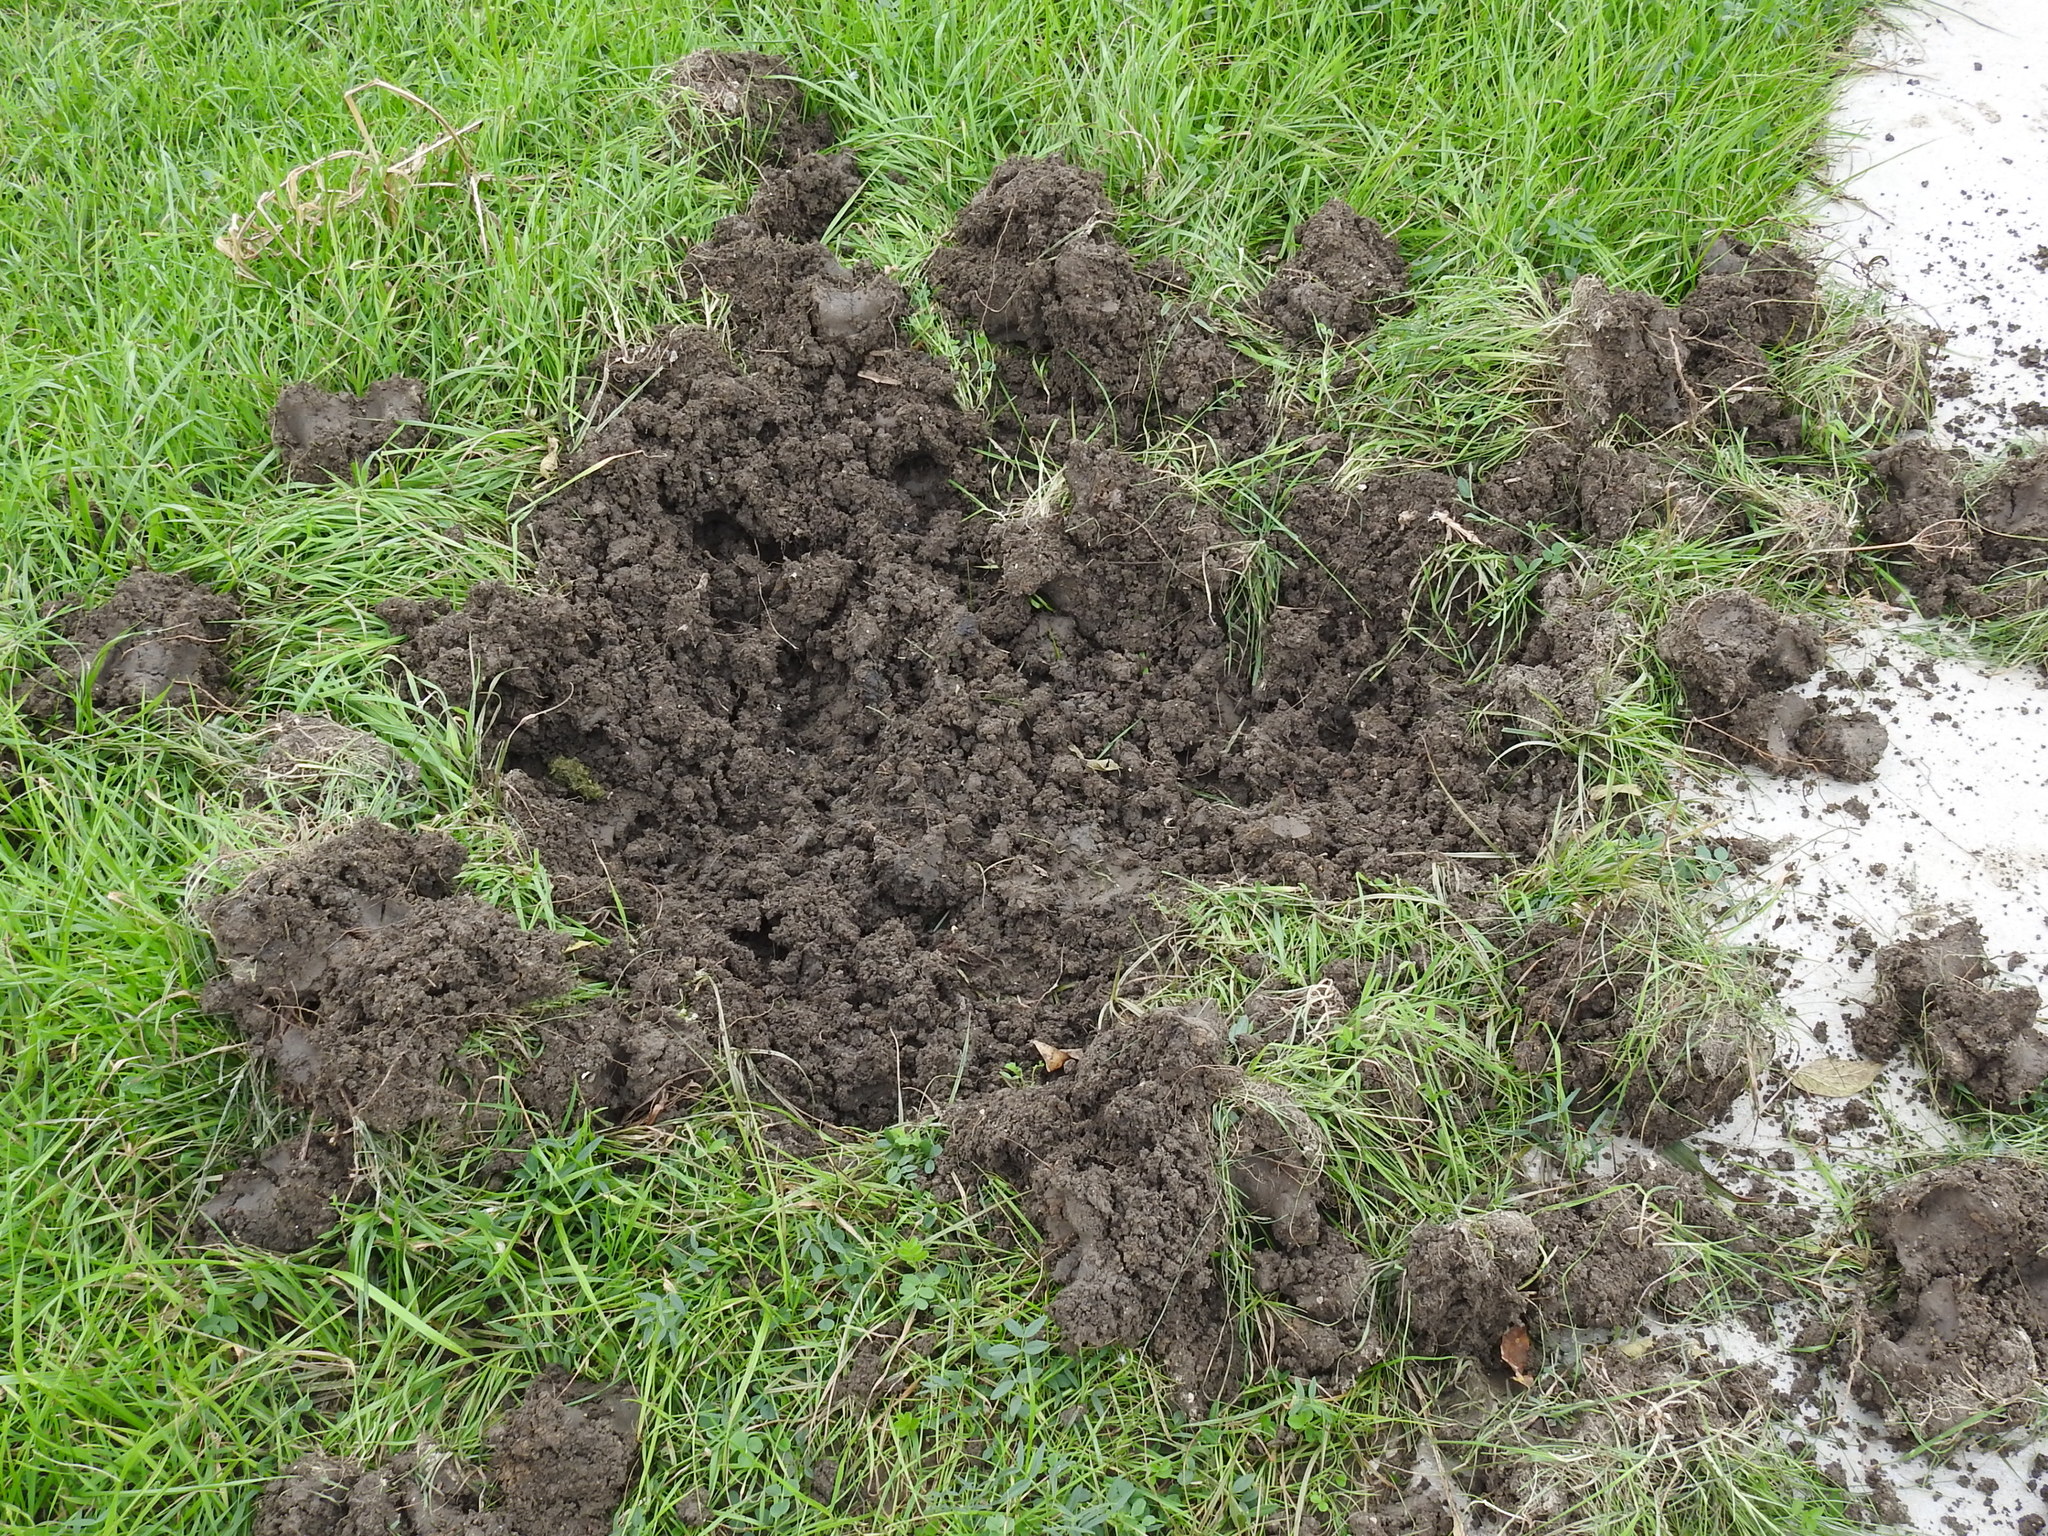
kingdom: Animalia
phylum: Chordata
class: Mammalia
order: Artiodactyla
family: Suidae
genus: Sus
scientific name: Sus scrofa
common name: Wild boar
